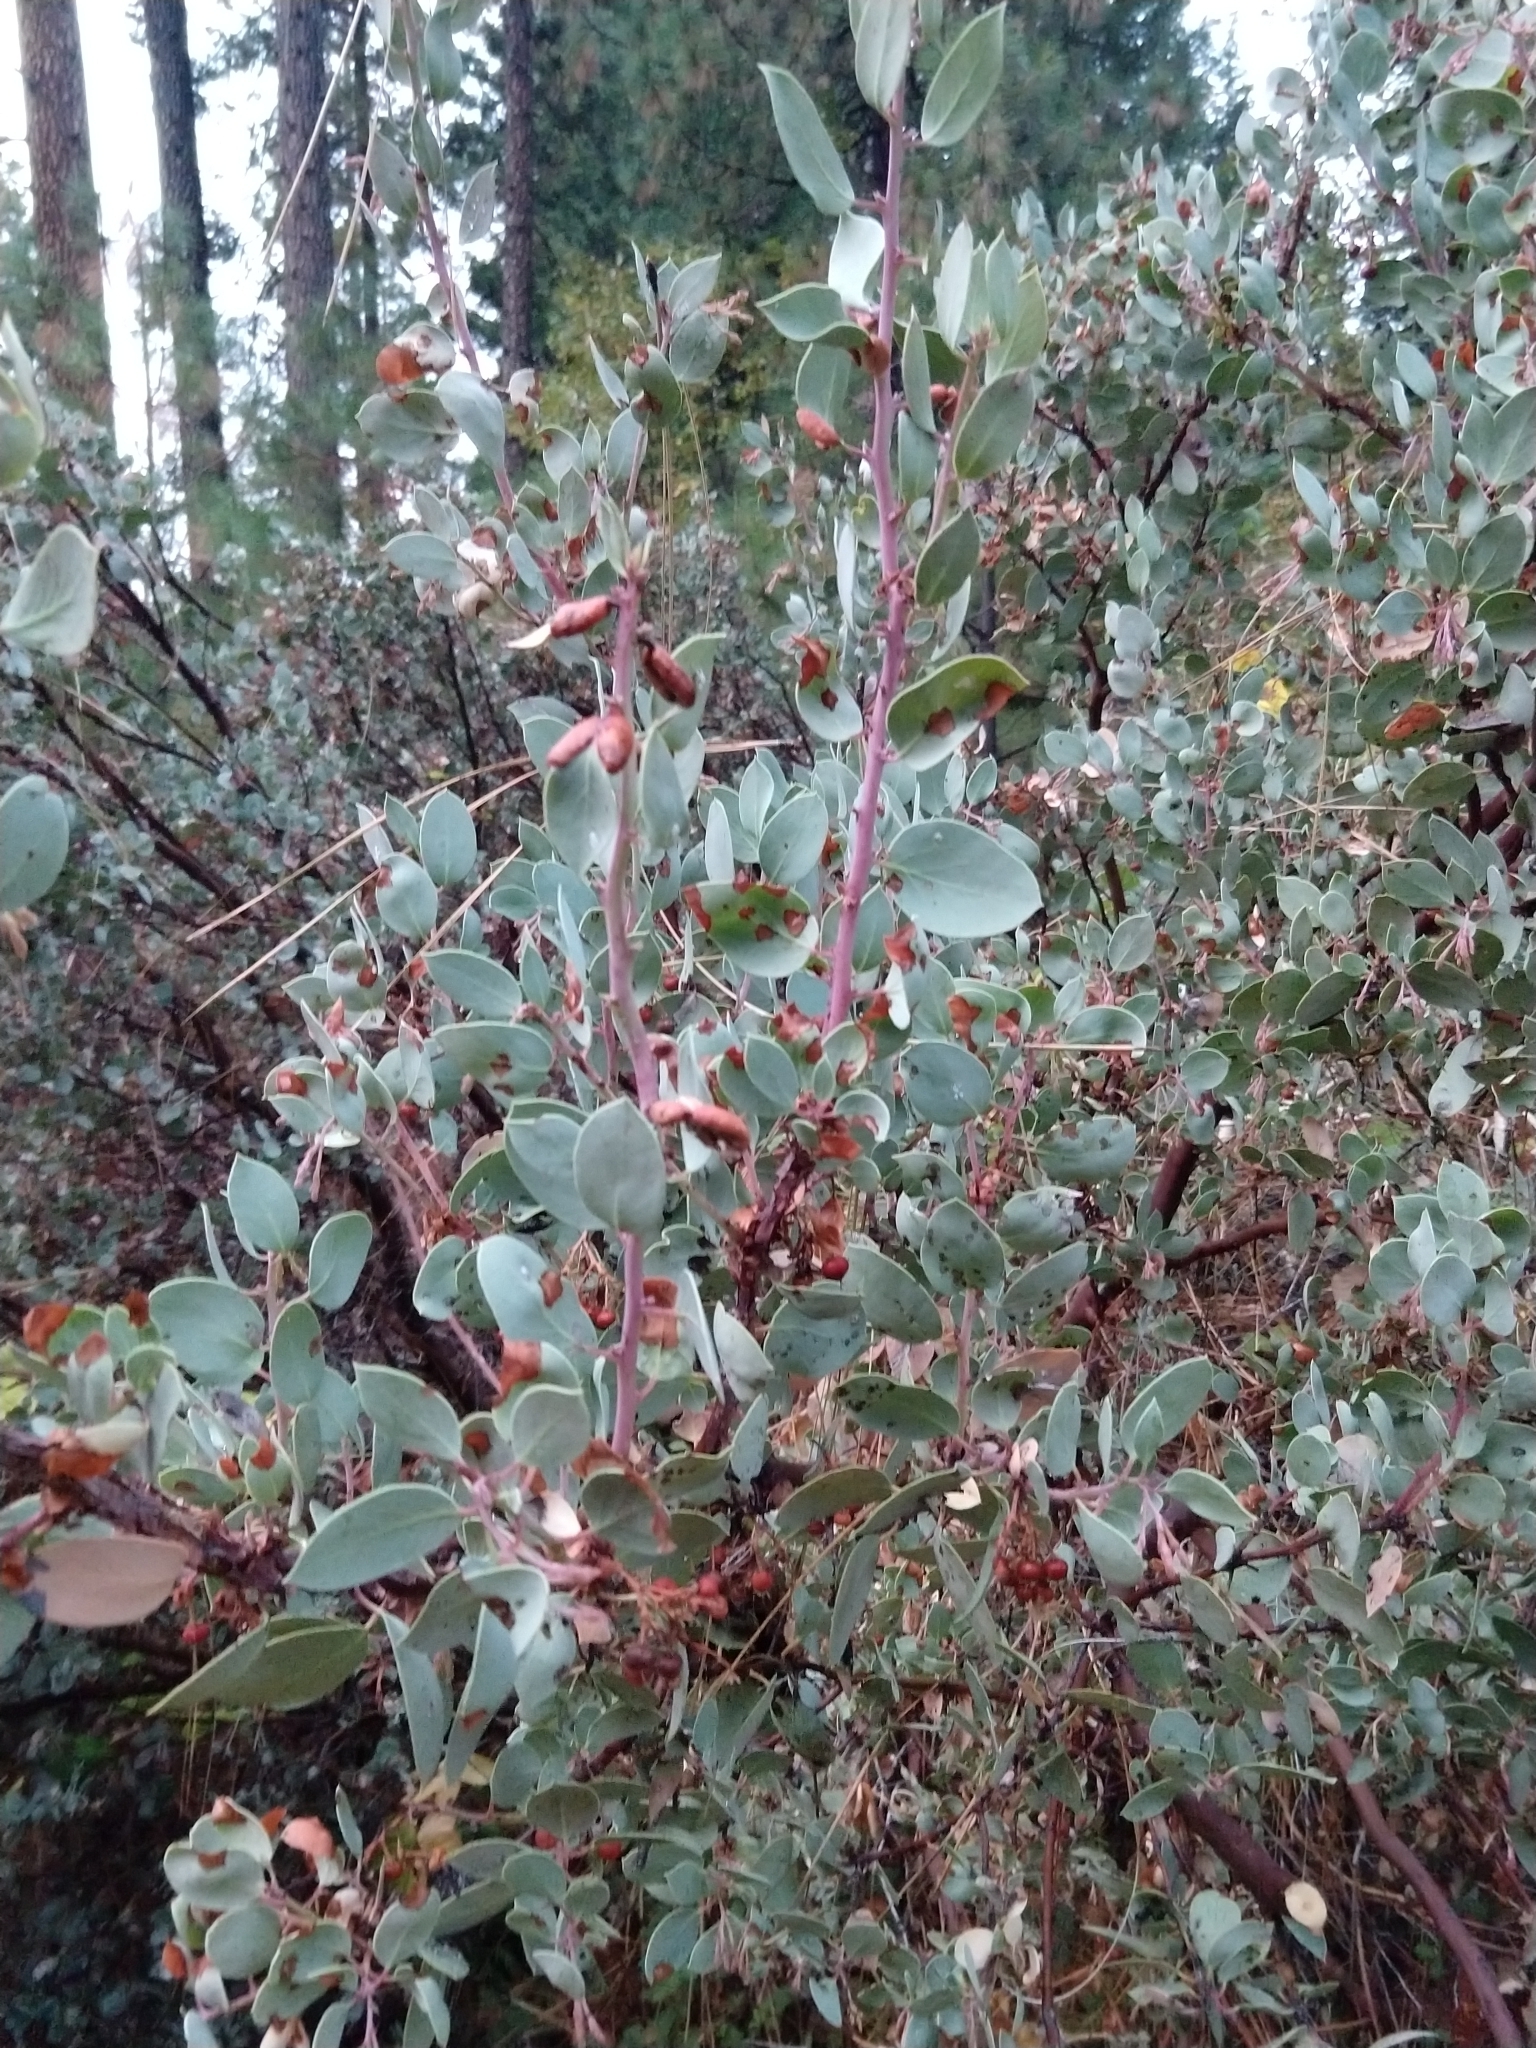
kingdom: Animalia
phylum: Arthropoda
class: Insecta
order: Hemiptera
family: Aphididae
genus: Tamalia
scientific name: Tamalia coweni
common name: Manzanita leafgall aphid
